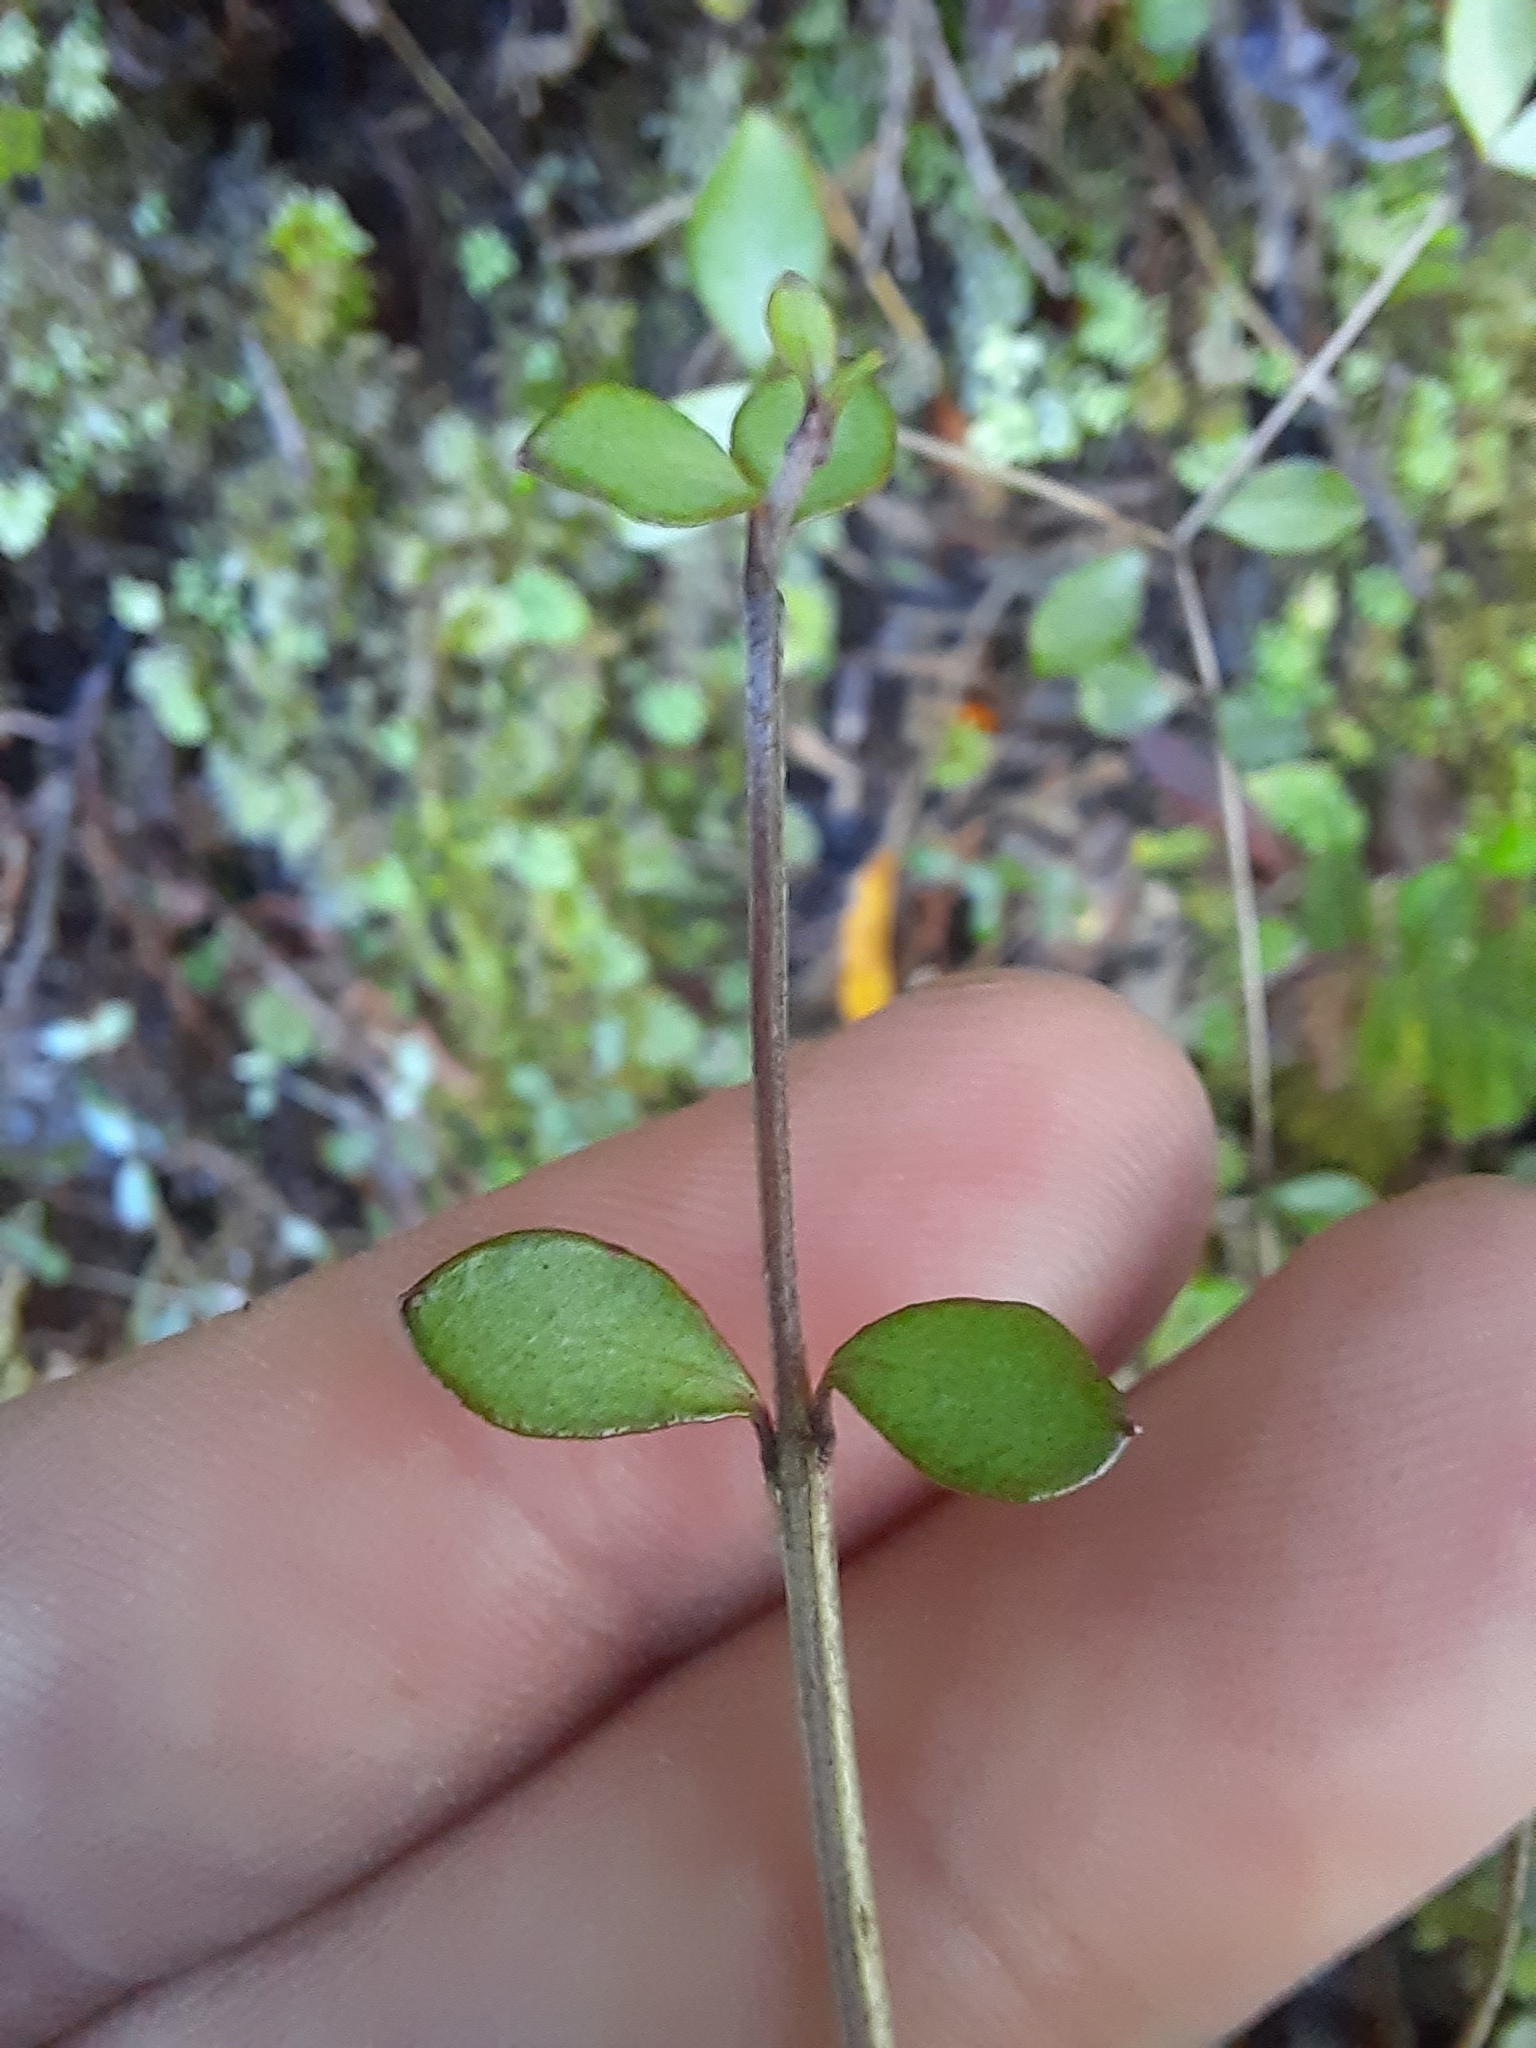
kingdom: Plantae
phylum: Tracheophyta
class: Magnoliopsida
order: Myrtales
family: Myrtaceae
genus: Neomyrtus
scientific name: Neomyrtus pedunculata
